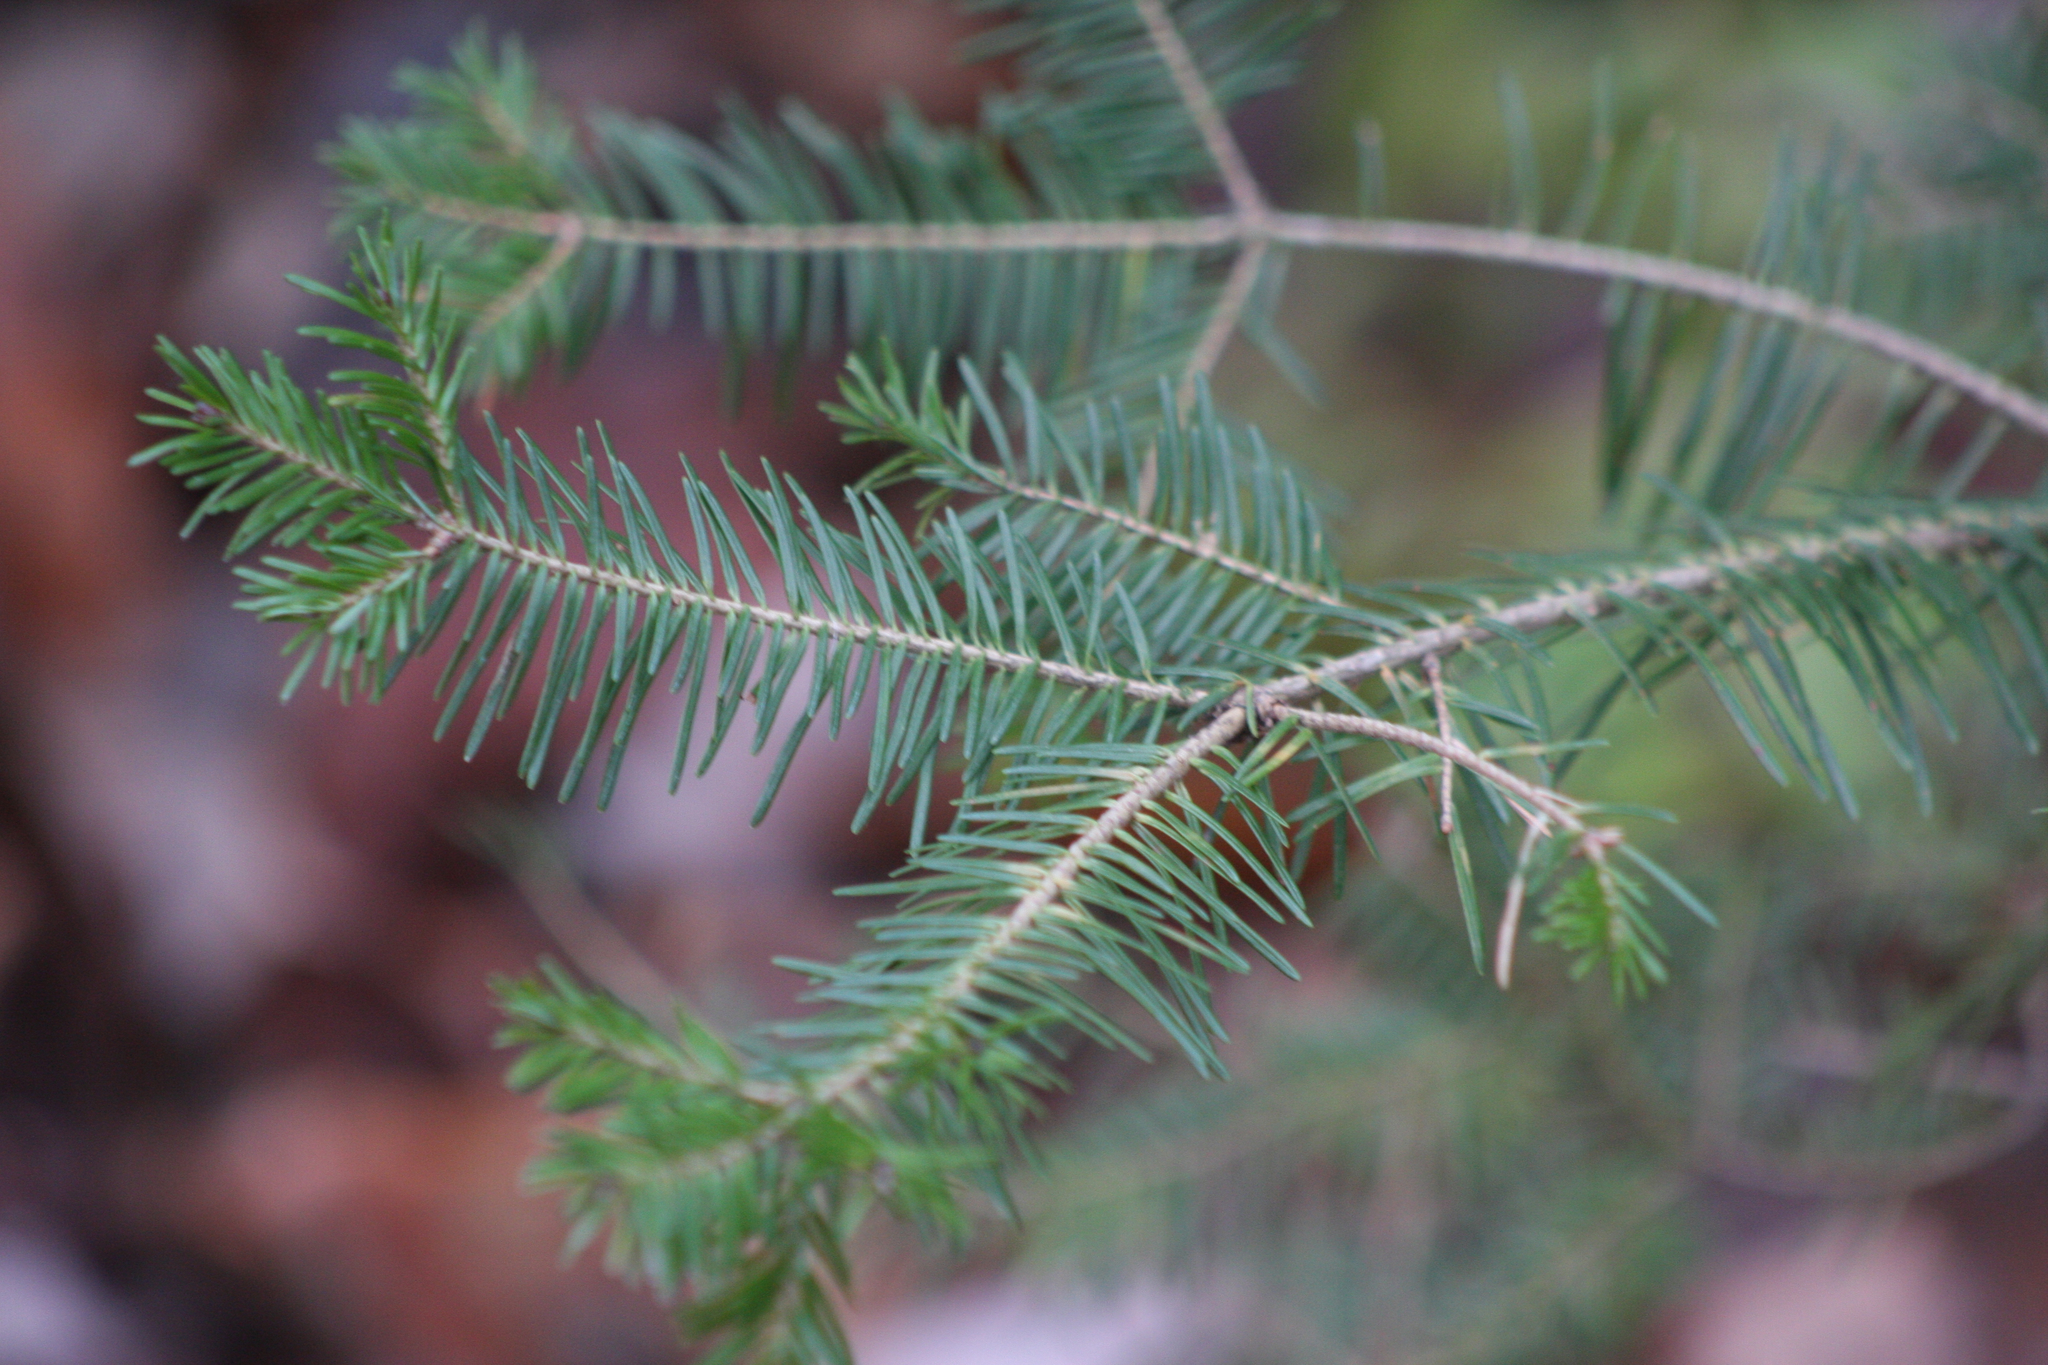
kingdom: Plantae
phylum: Tracheophyta
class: Pinopsida
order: Pinales
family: Pinaceae
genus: Abies
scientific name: Abies balsamea
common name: Balsam fir
